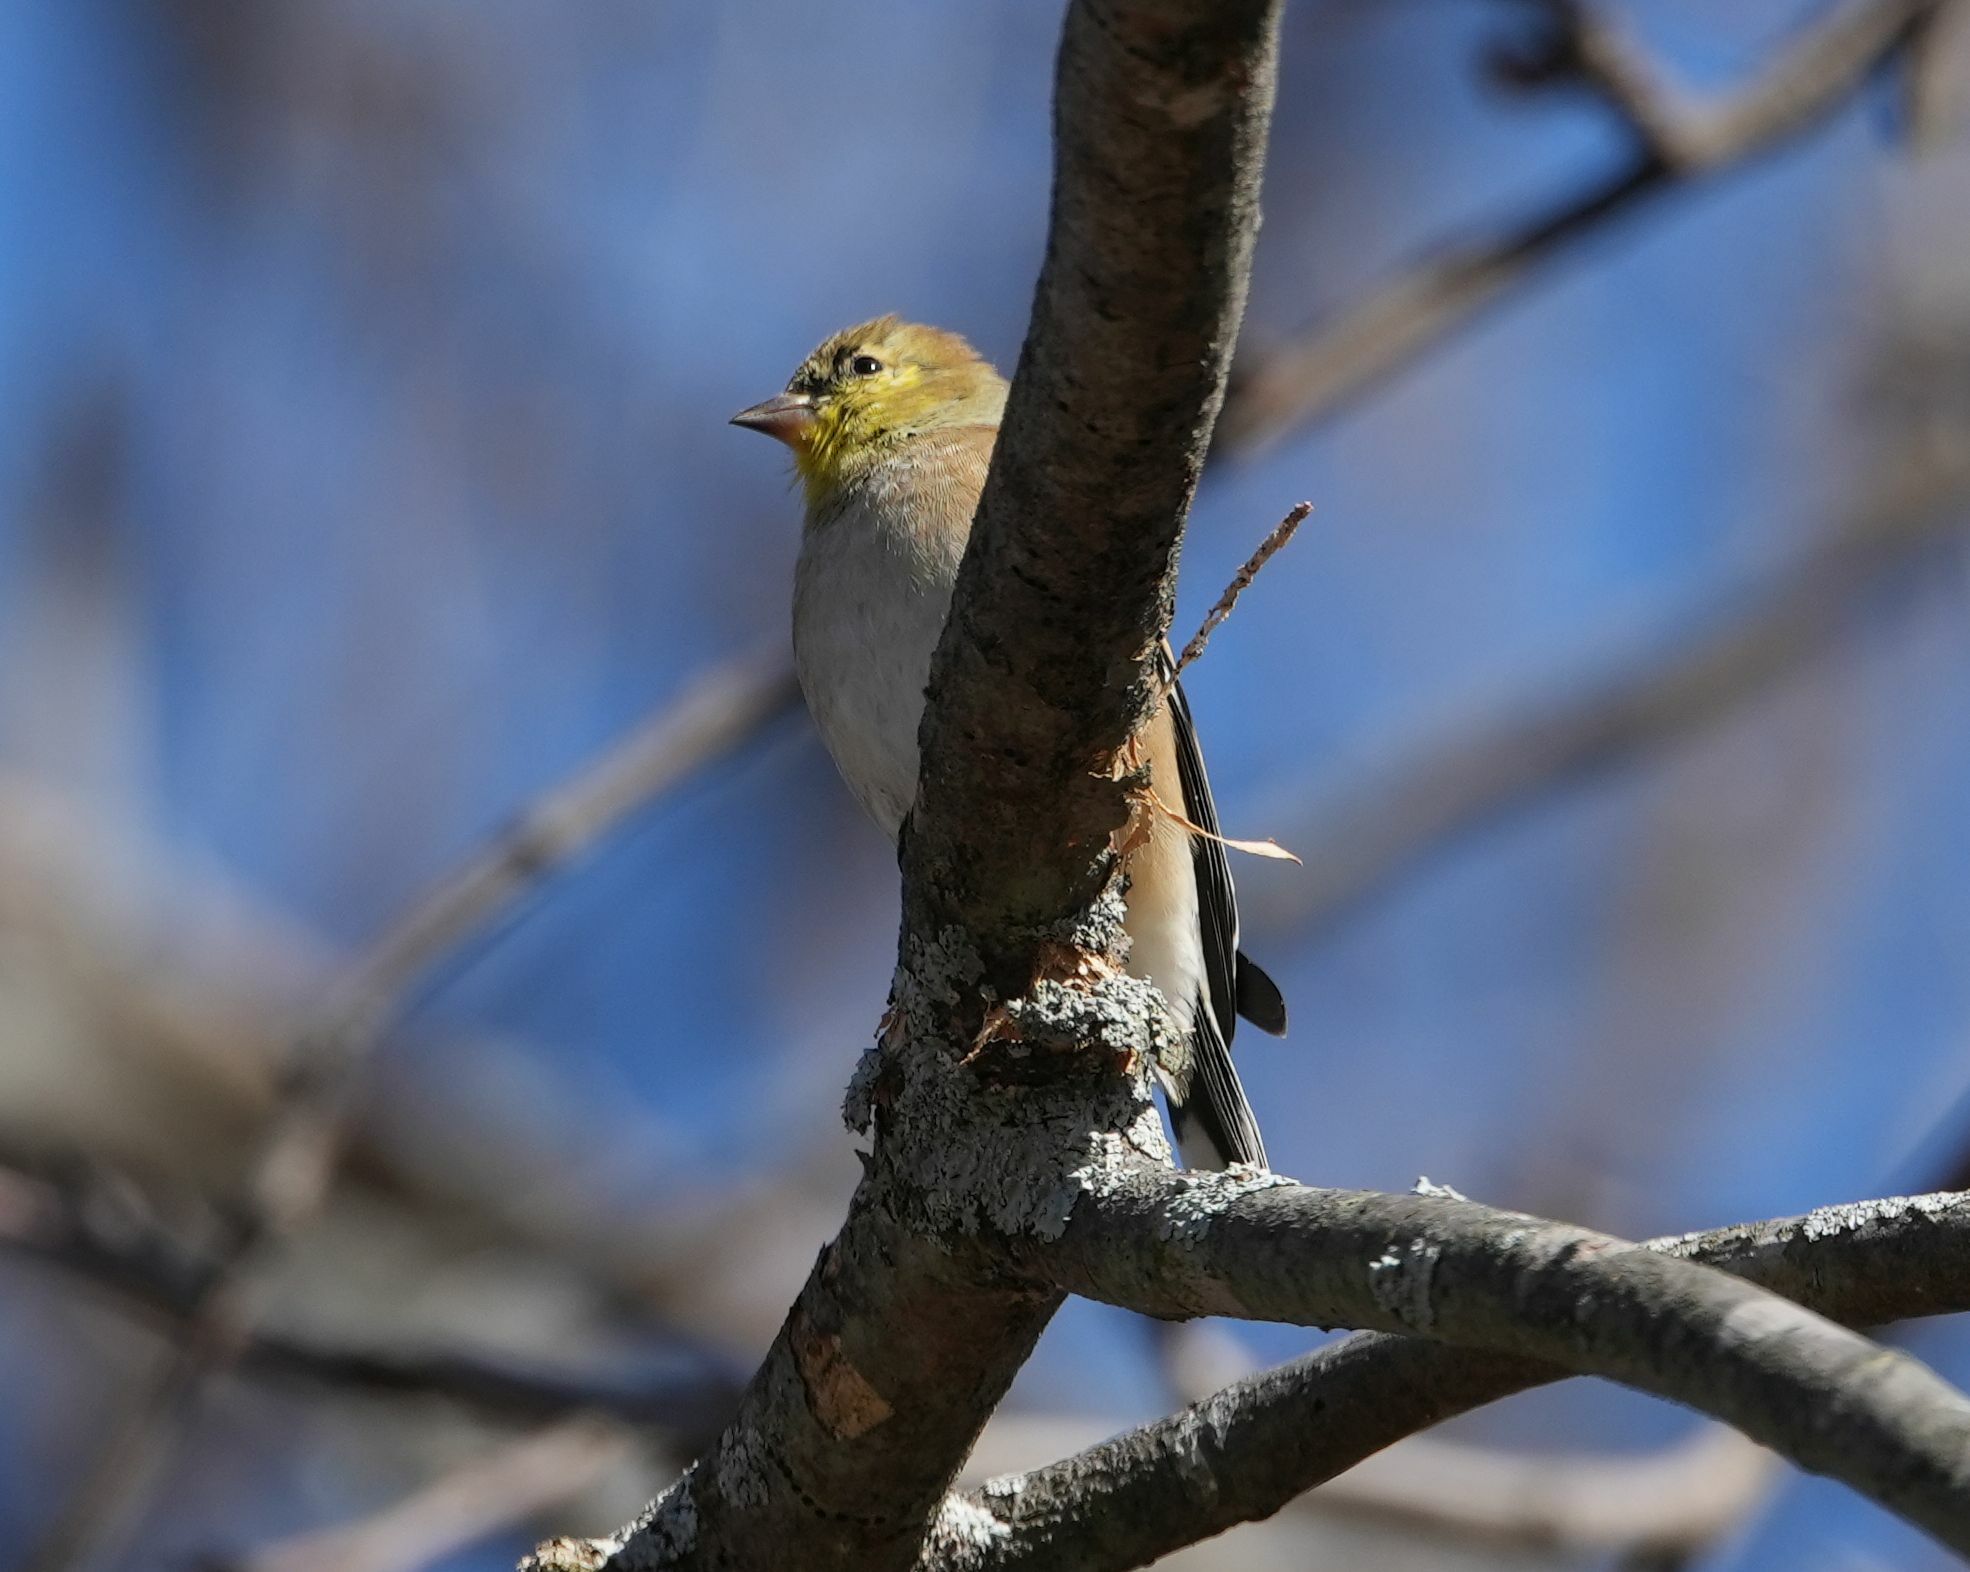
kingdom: Animalia
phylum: Chordata
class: Aves
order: Passeriformes
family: Fringillidae
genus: Spinus
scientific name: Spinus tristis
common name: American goldfinch
